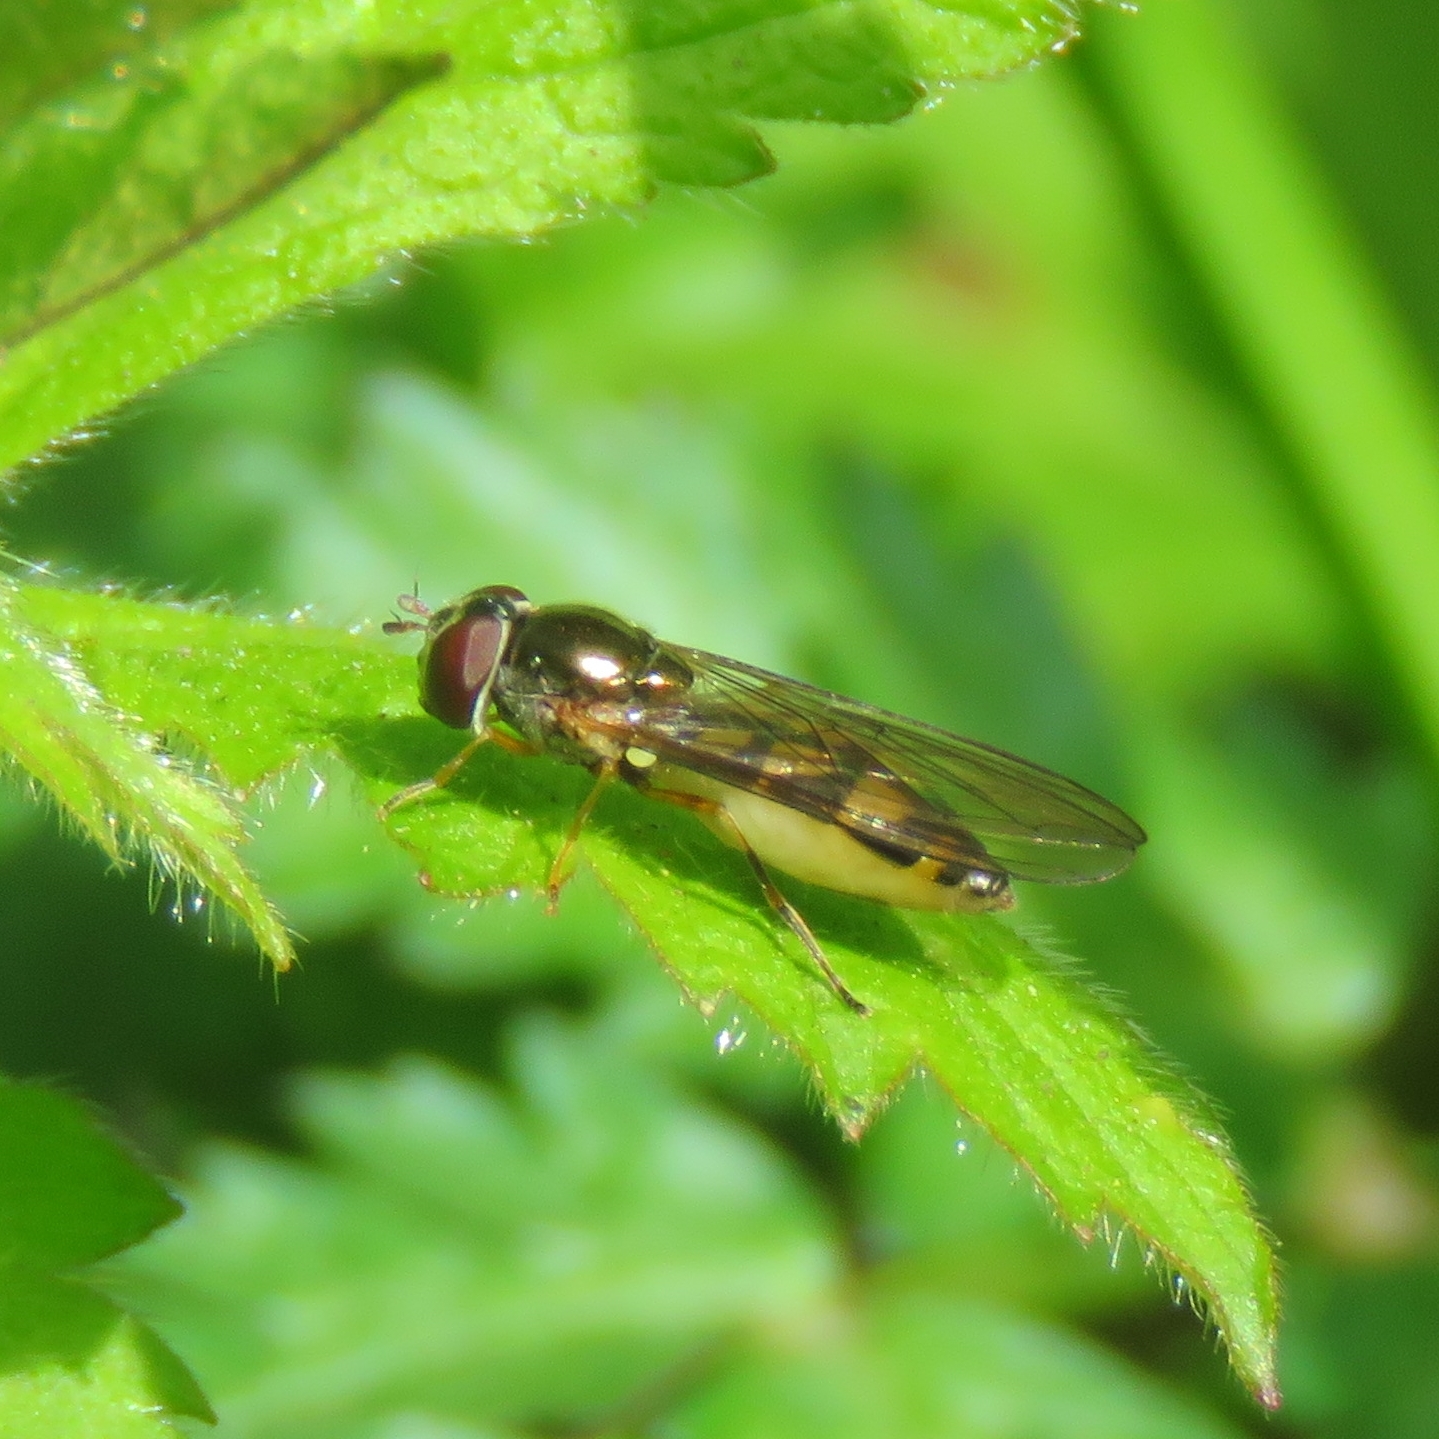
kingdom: Animalia
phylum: Arthropoda
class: Insecta
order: Diptera
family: Syrphidae
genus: Melanostoma
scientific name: Melanostoma scalare
